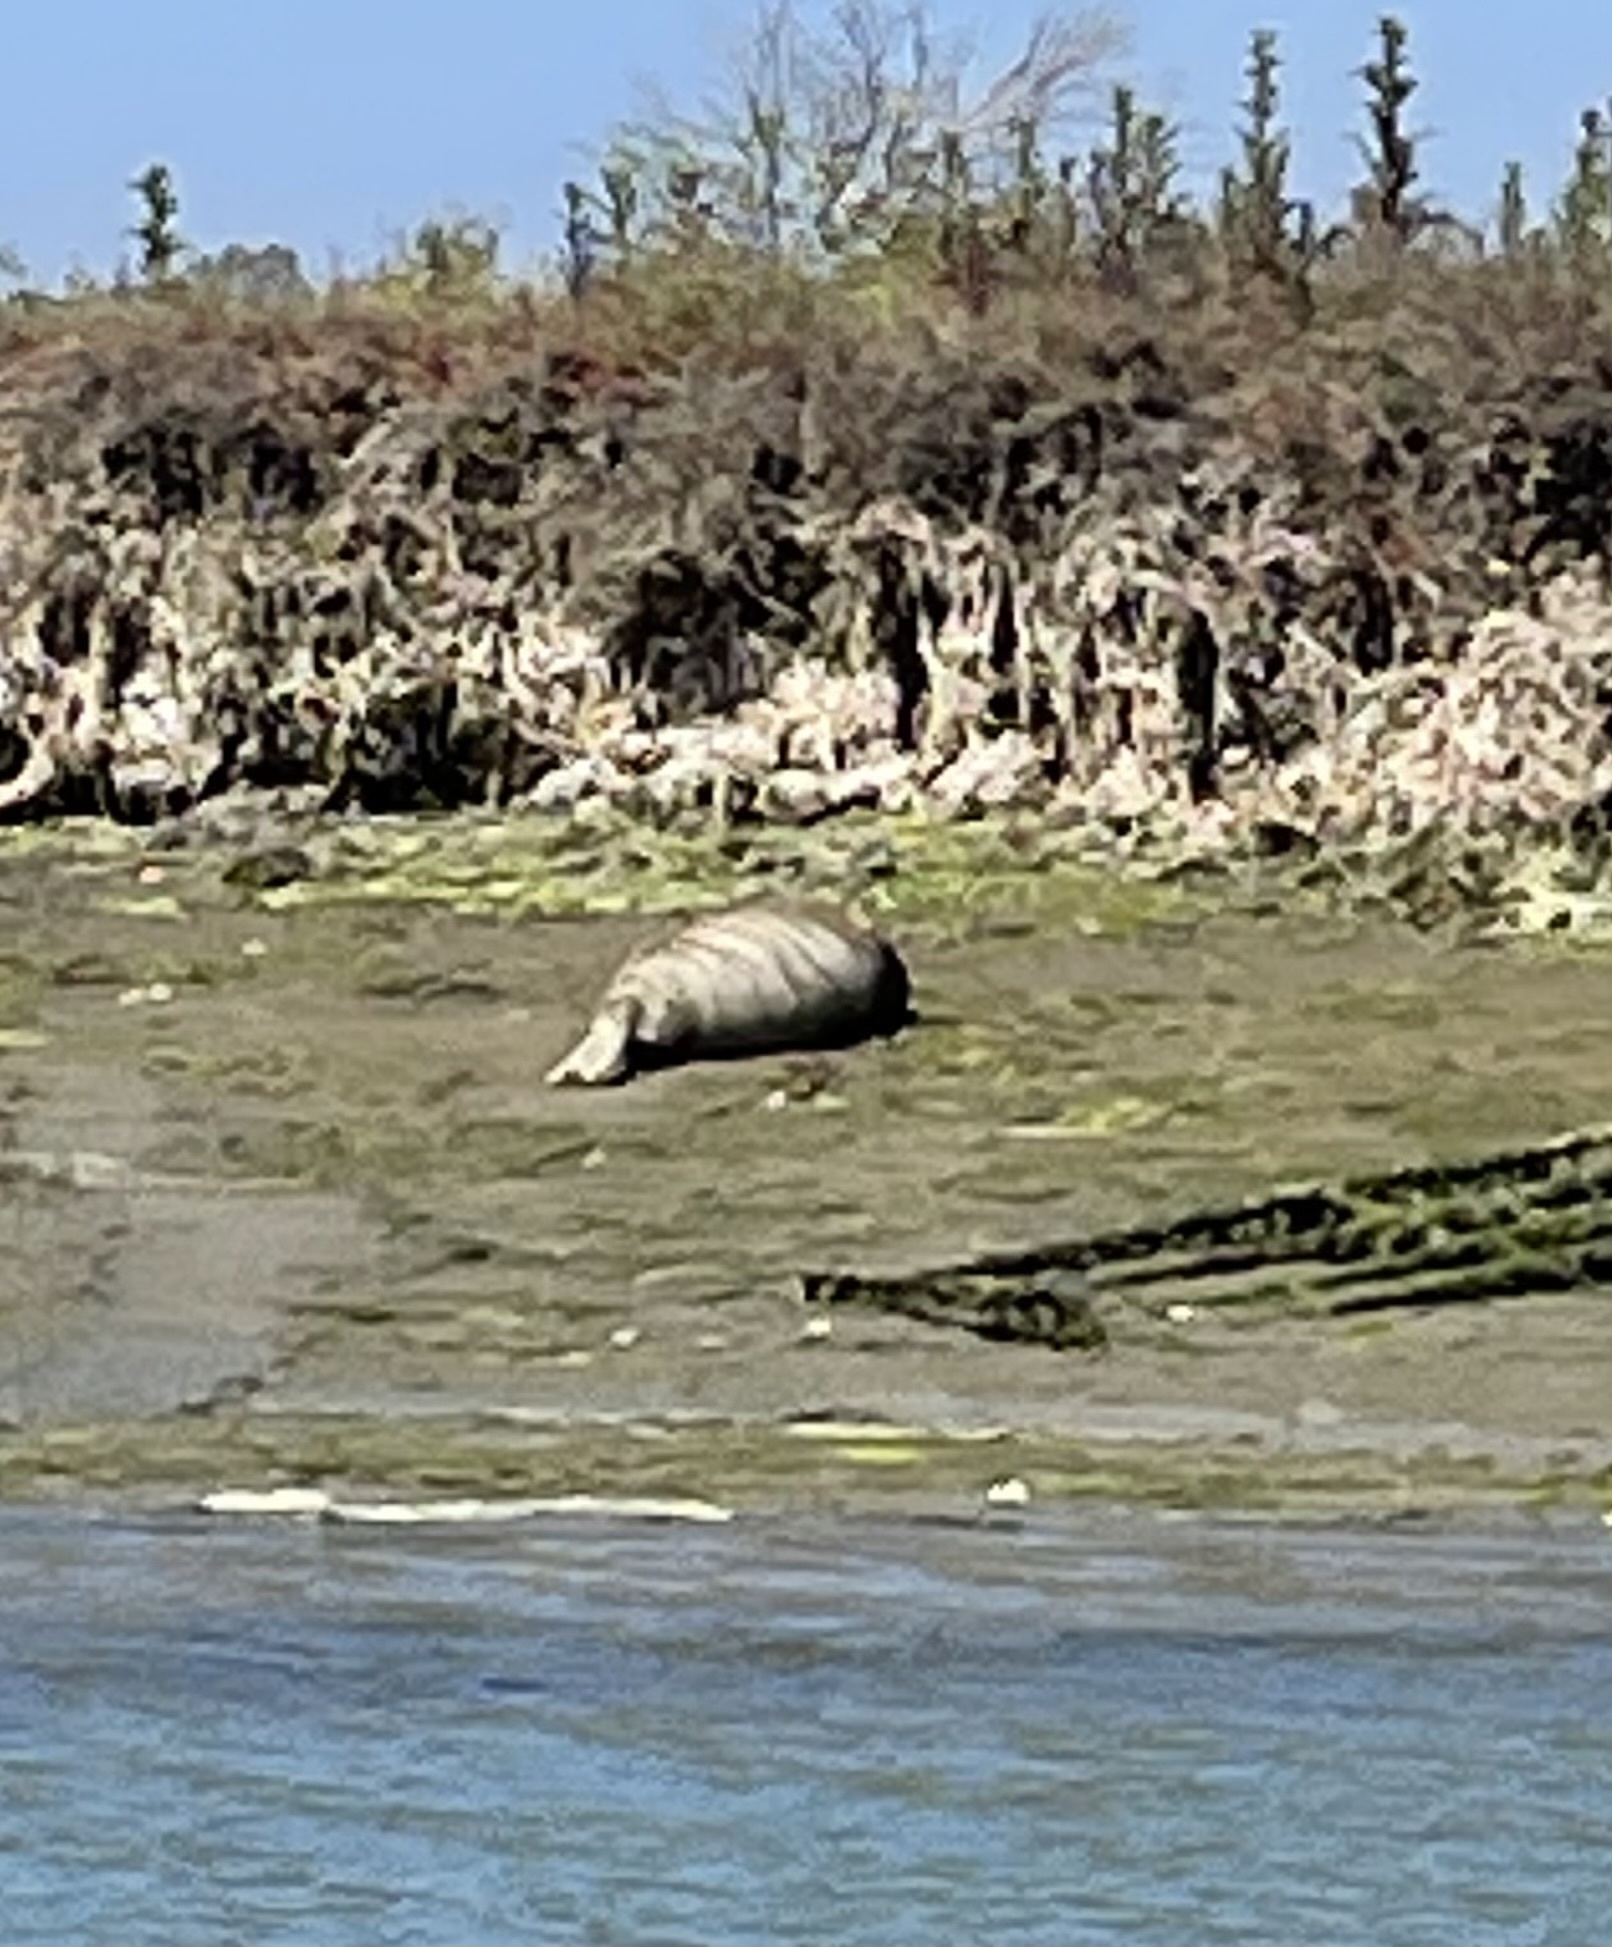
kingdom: Animalia
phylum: Chordata
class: Mammalia
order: Carnivora
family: Phocidae
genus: Phoca
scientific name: Phoca vitulina
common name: Harbor seal
